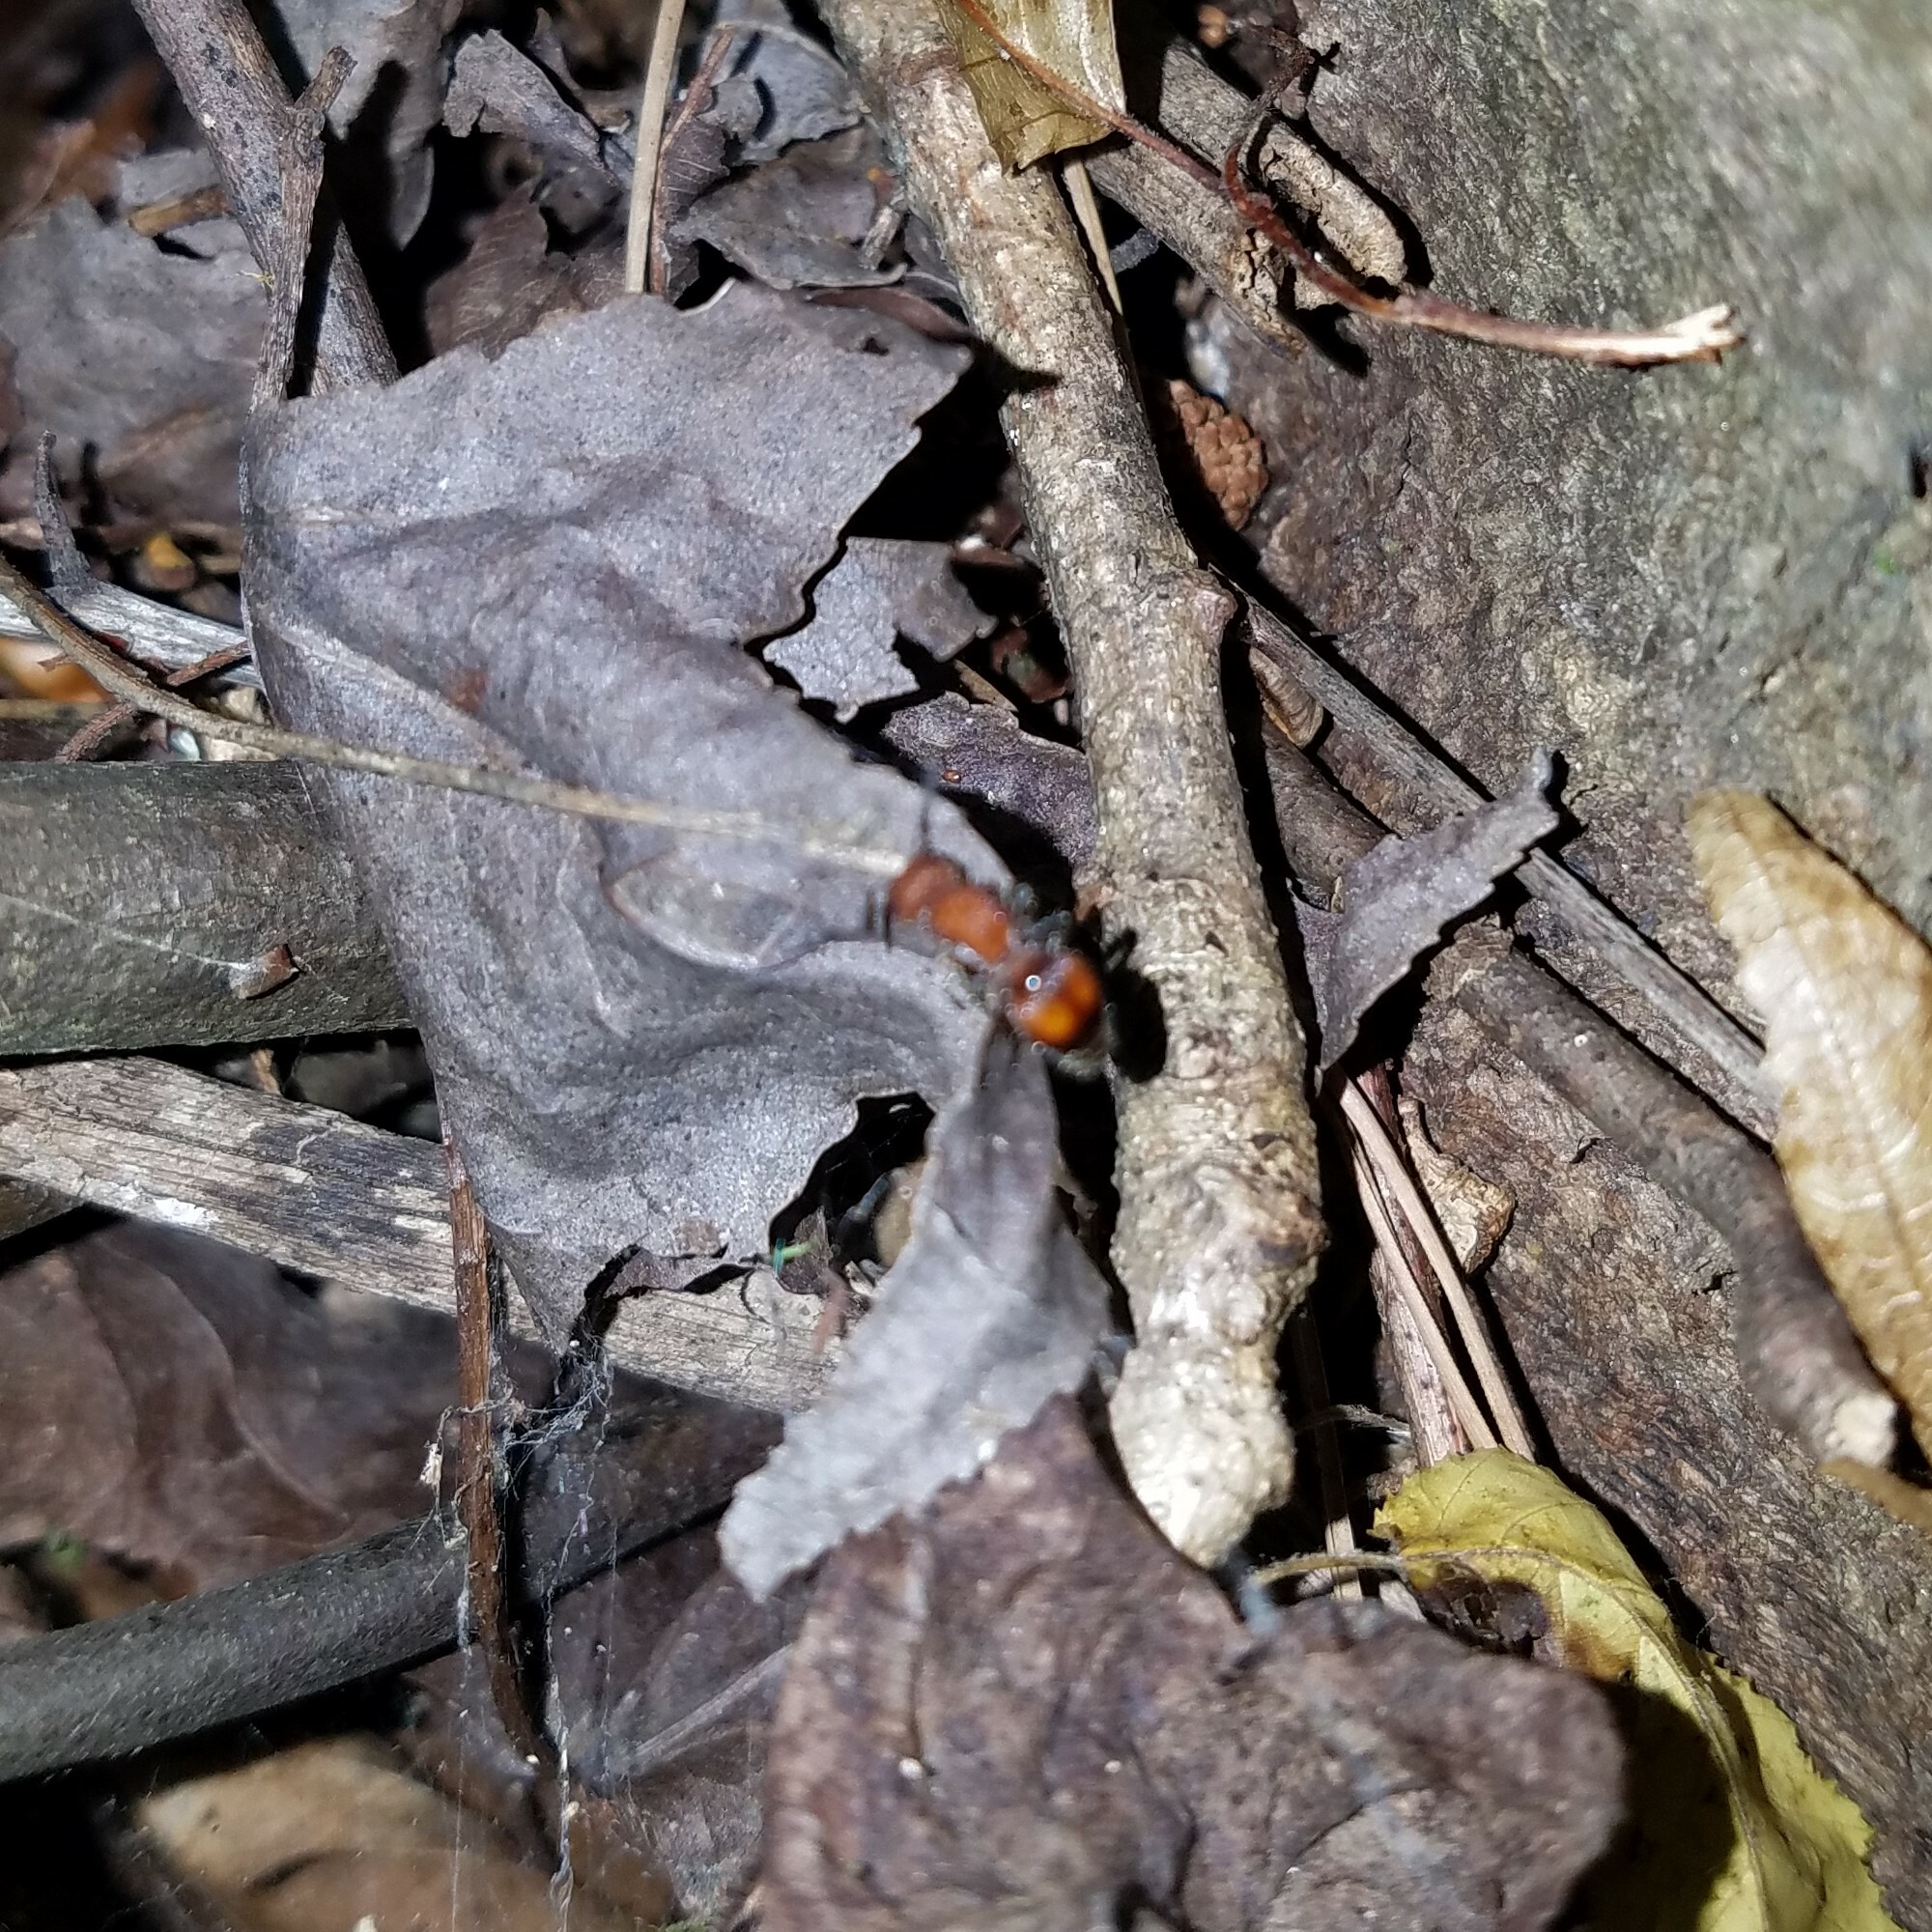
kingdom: Animalia
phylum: Arthropoda
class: Insecta
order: Hymenoptera
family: Mutillidae
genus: Pseudomethoca
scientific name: Pseudomethoca
